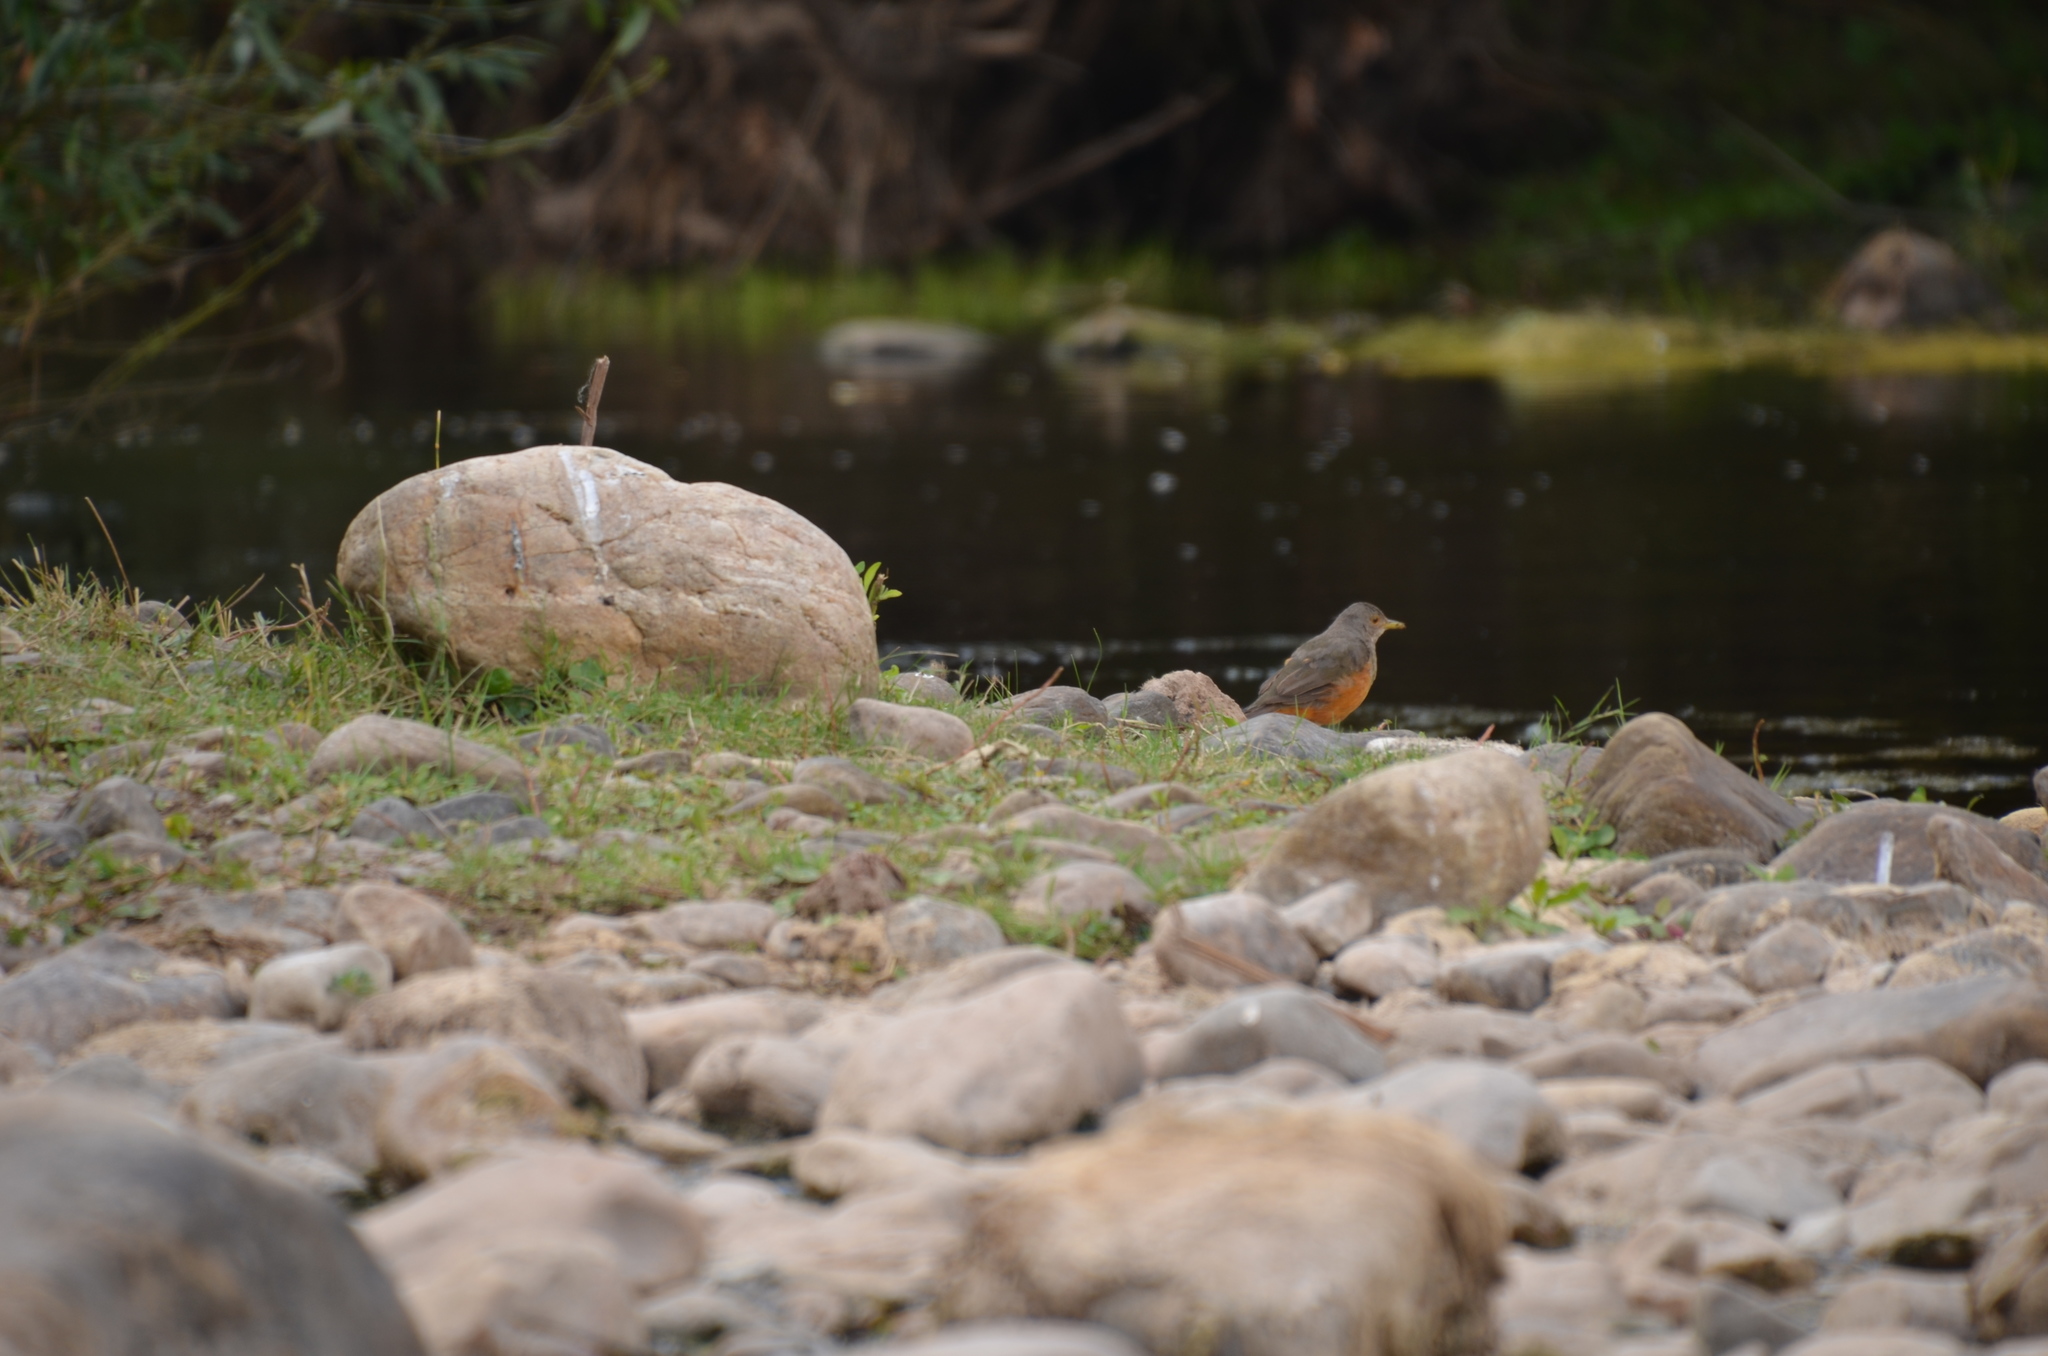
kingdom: Animalia
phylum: Chordata
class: Aves
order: Passeriformes
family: Turdidae
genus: Turdus
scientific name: Turdus rufiventris
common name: Rufous-bellied thrush
